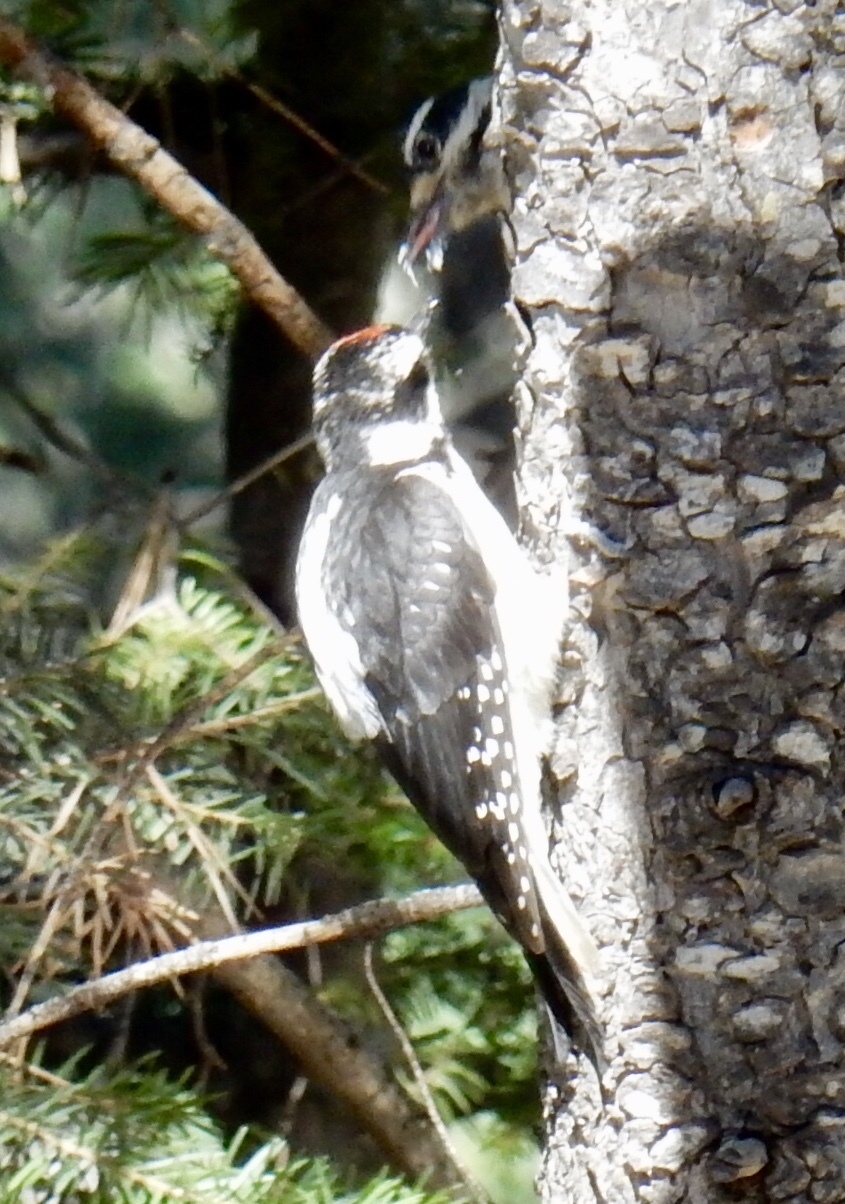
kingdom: Animalia
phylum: Chordata
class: Aves
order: Piciformes
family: Picidae
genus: Leuconotopicus
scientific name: Leuconotopicus villosus
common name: Hairy woodpecker
